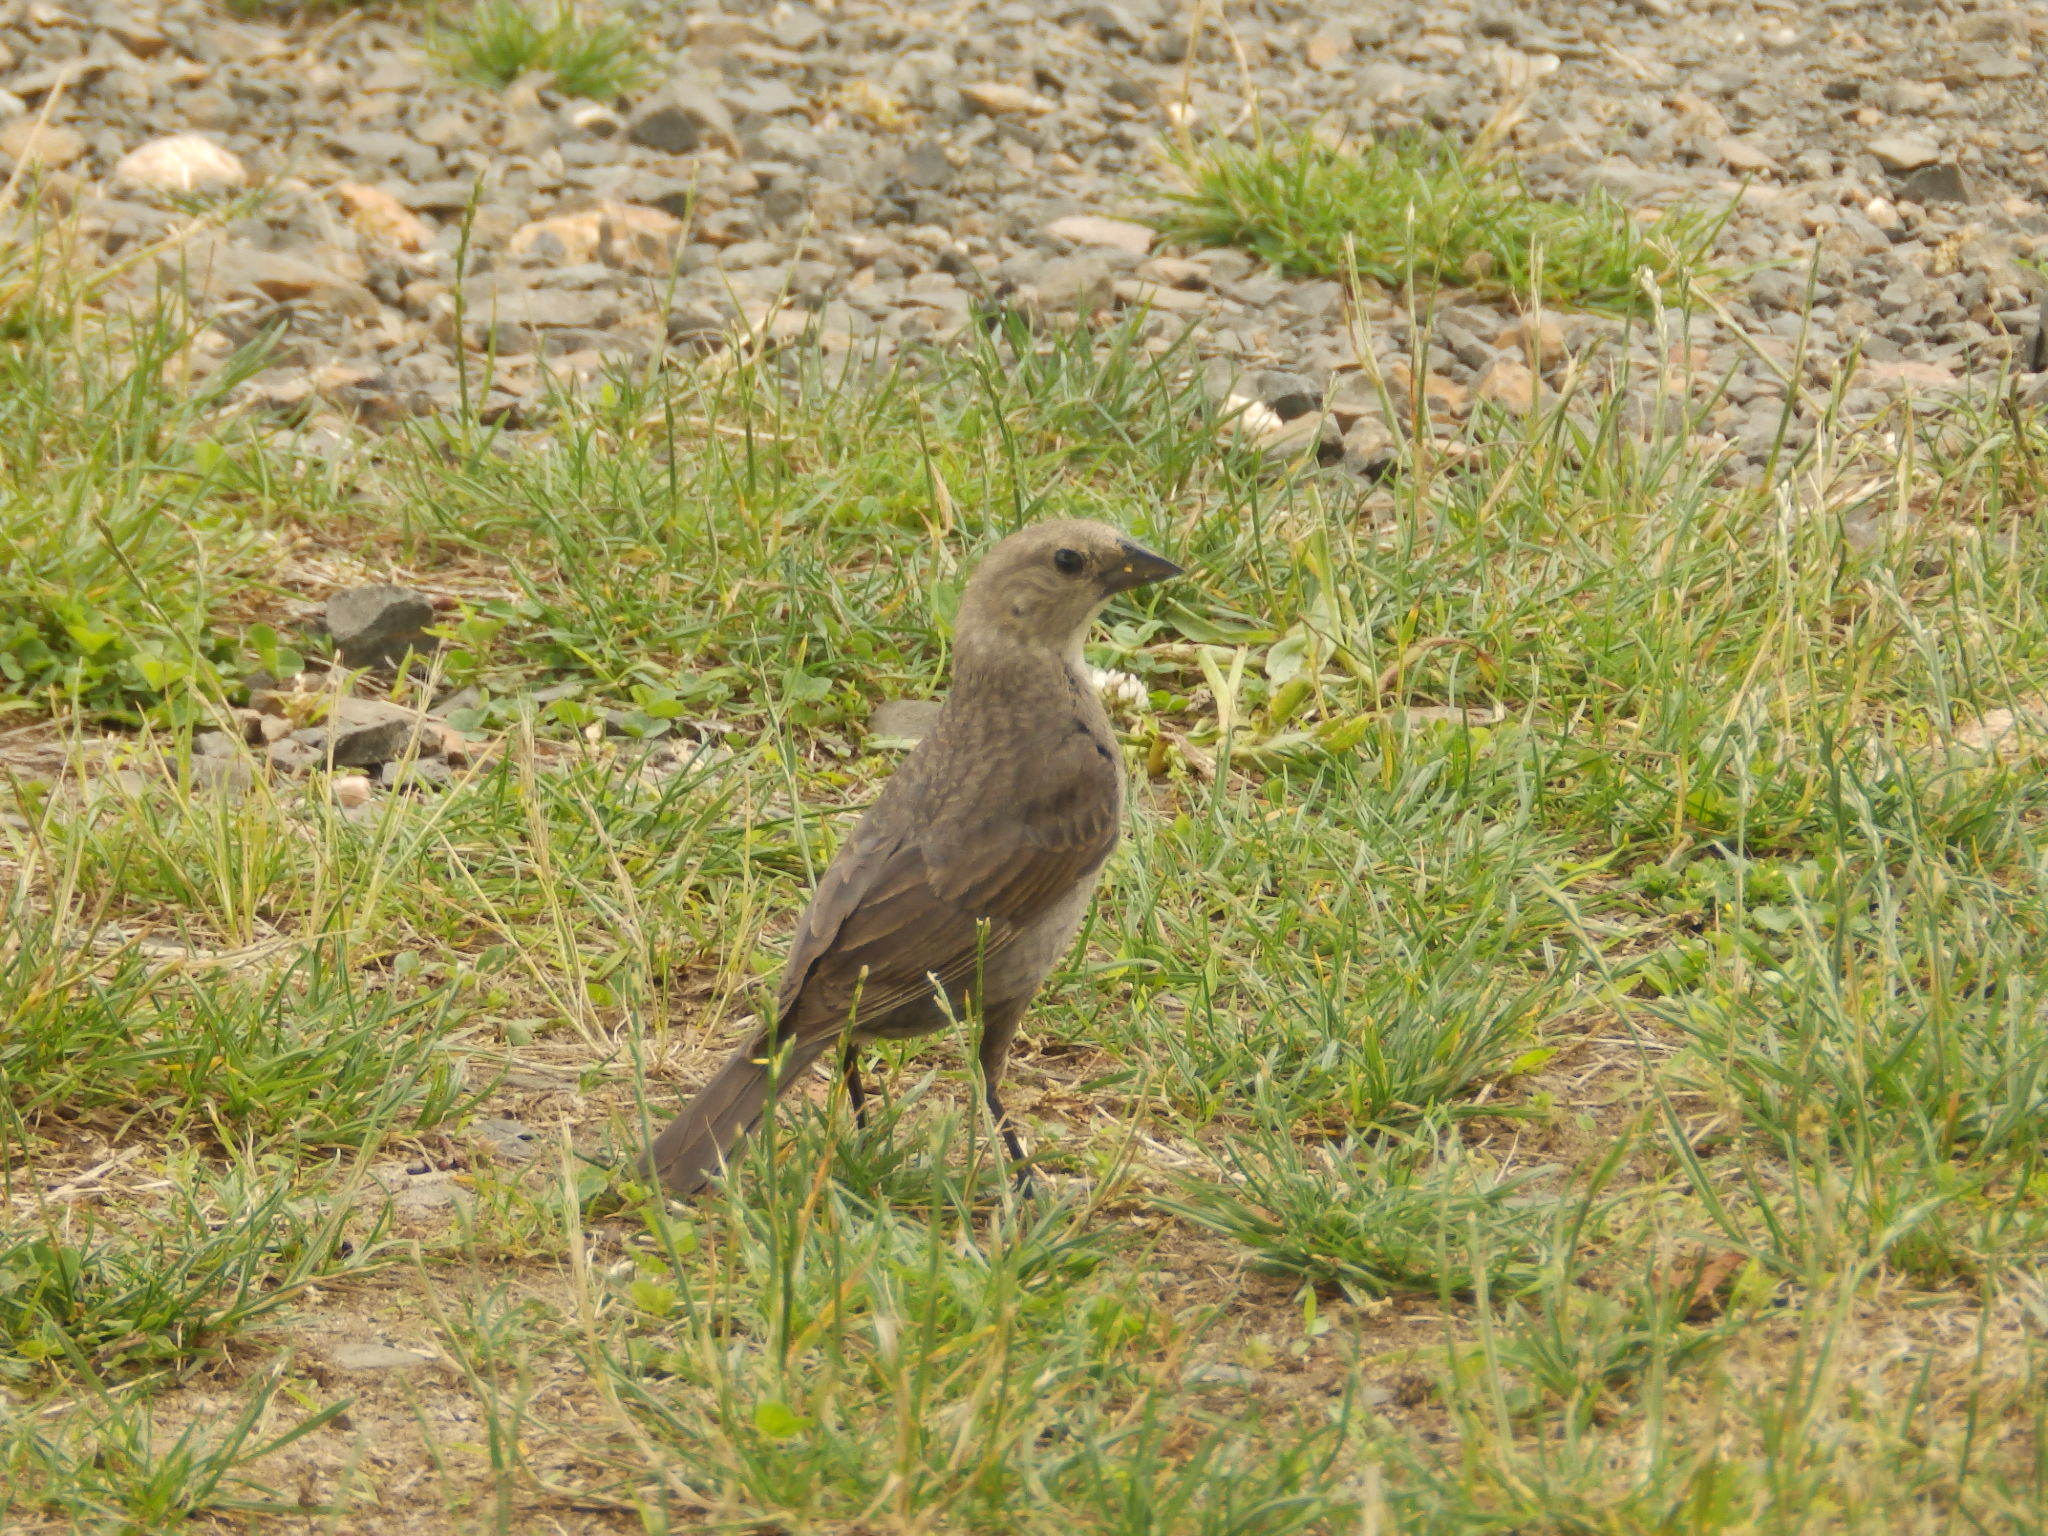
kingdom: Animalia
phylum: Chordata
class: Aves
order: Passeriformes
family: Icteridae
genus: Molothrus
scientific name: Molothrus ater
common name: Brown-headed cowbird
